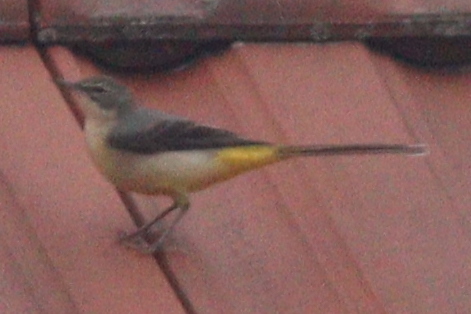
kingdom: Animalia
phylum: Chordata
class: Aves
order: Passeriformes
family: Motacillidae
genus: Motacilla
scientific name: Motacilla cinerea
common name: Grey wagtail
